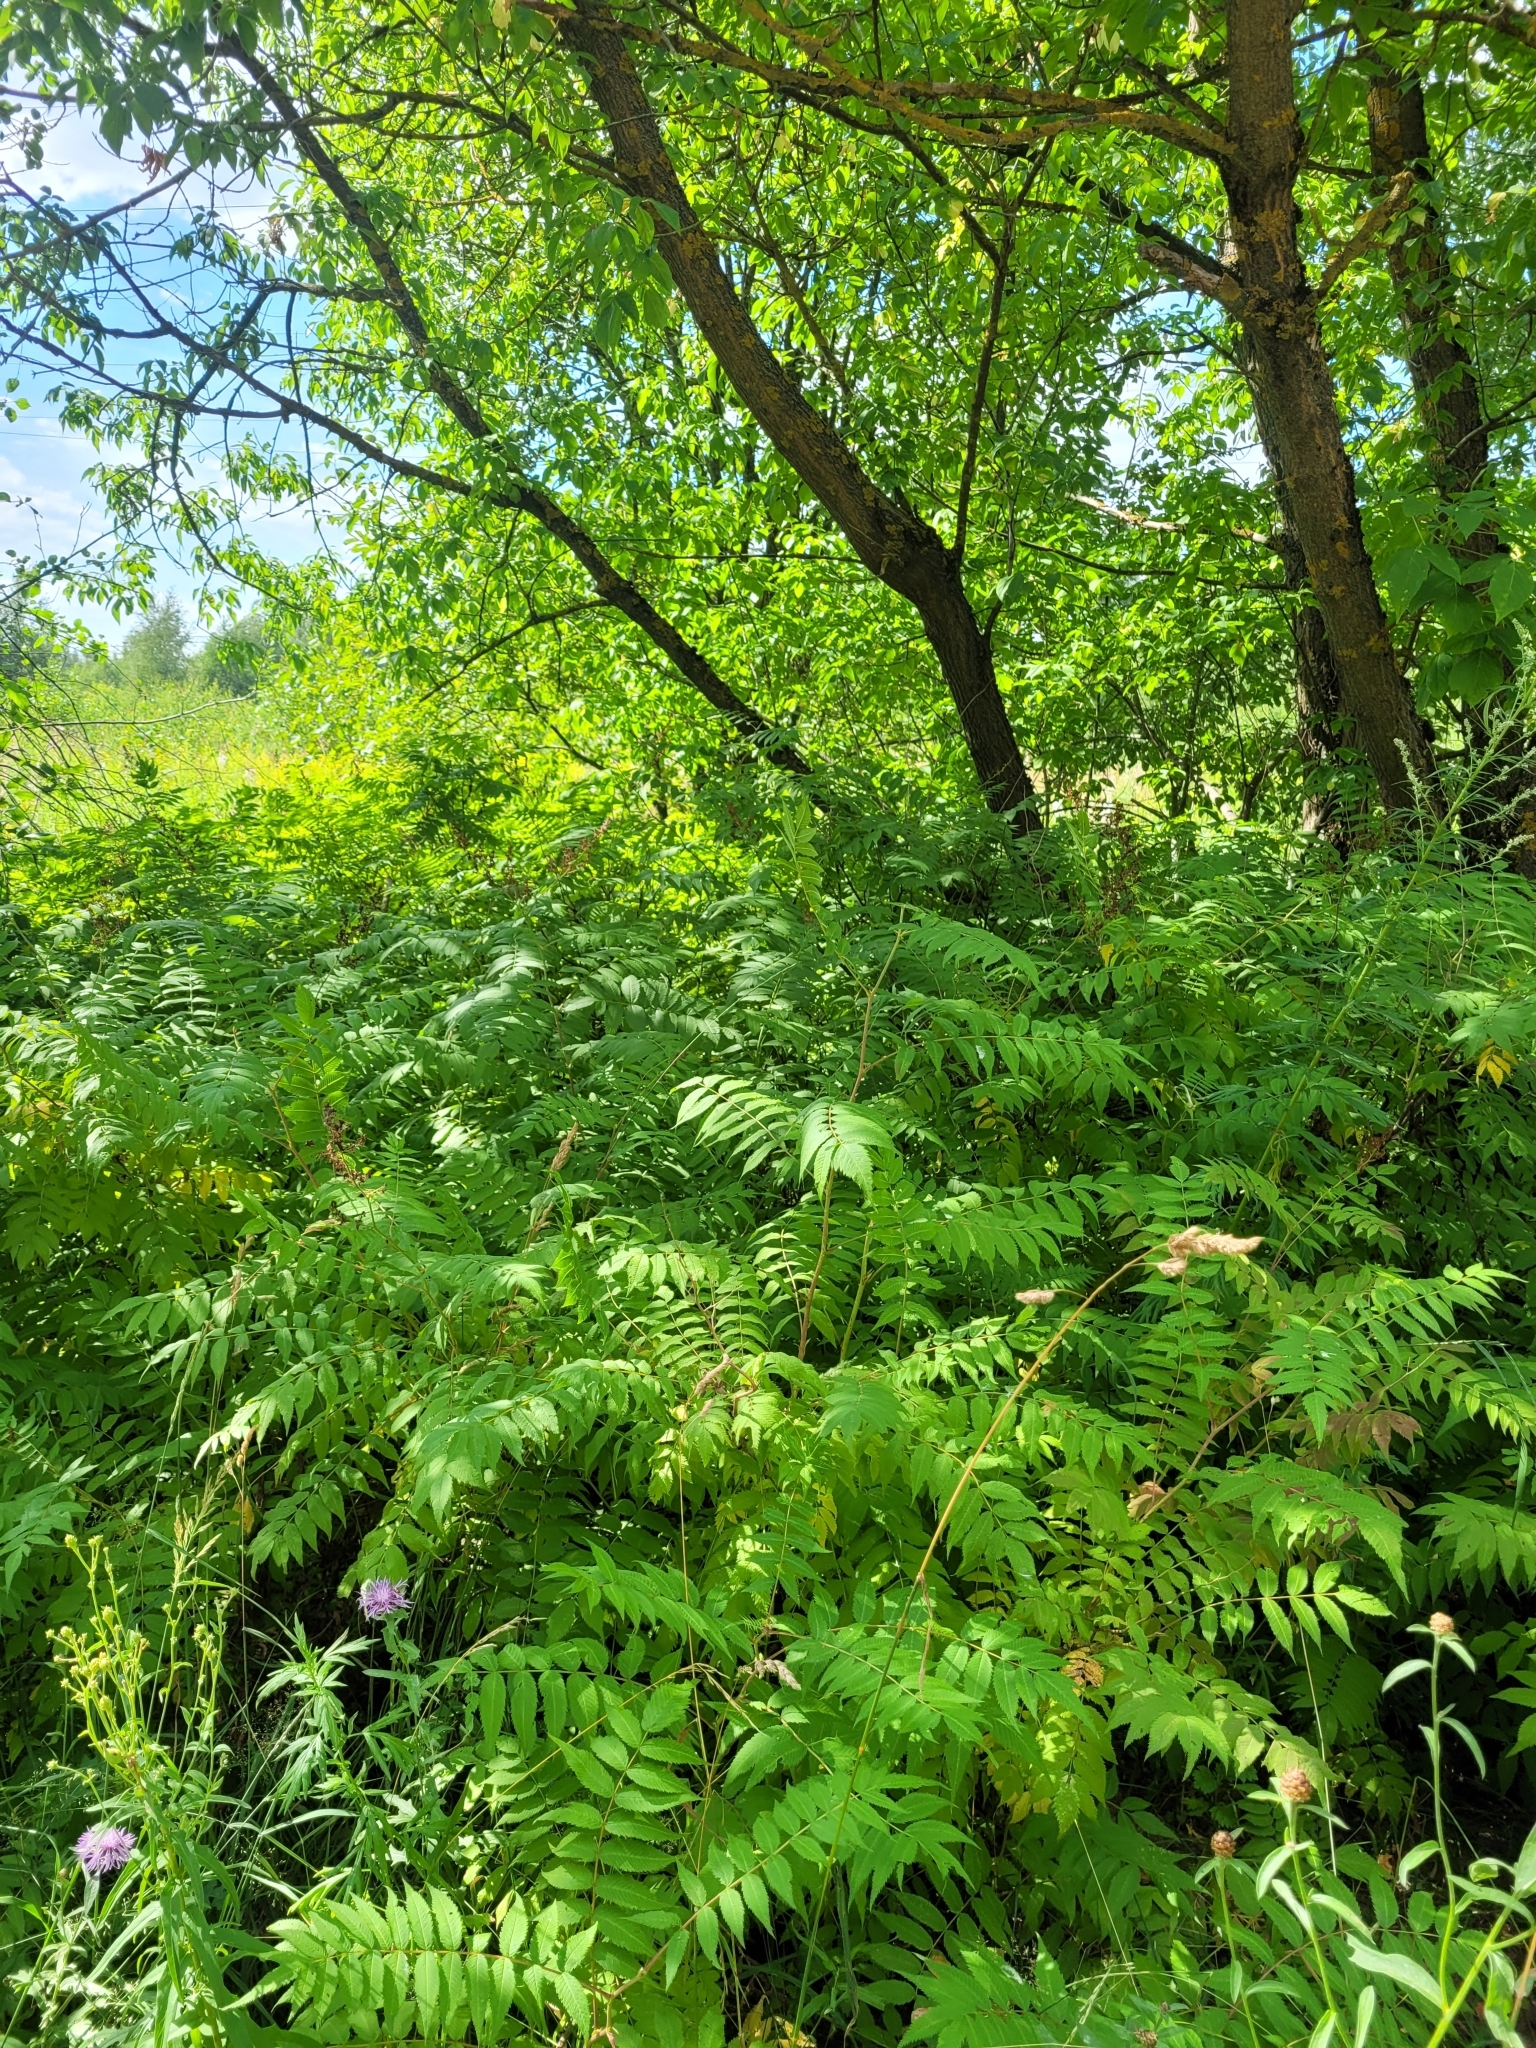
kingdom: Plantae
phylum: Tracheophyta
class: Magnoliopsida
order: Rosales
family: Rosaceae
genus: Sorbaria
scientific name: Sorbaria sorbifolia
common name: False spiraea
